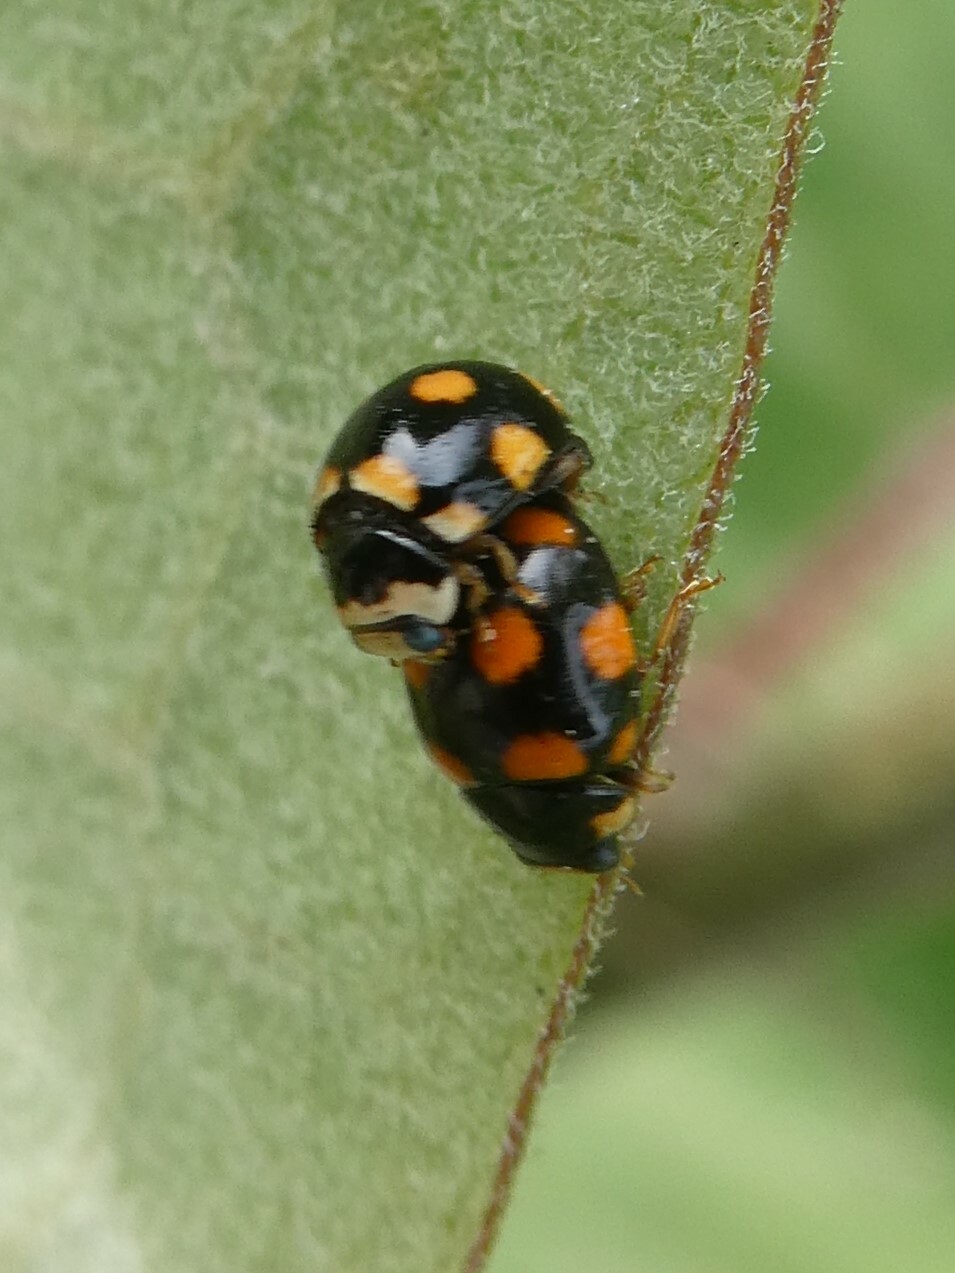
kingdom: Animalia
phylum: Arthropoda
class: Insecta
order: Coleoptera
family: Coccinellidae
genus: Brachiacantha
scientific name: Brachiacantha ursina
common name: Ursine spurleg lady beetle
